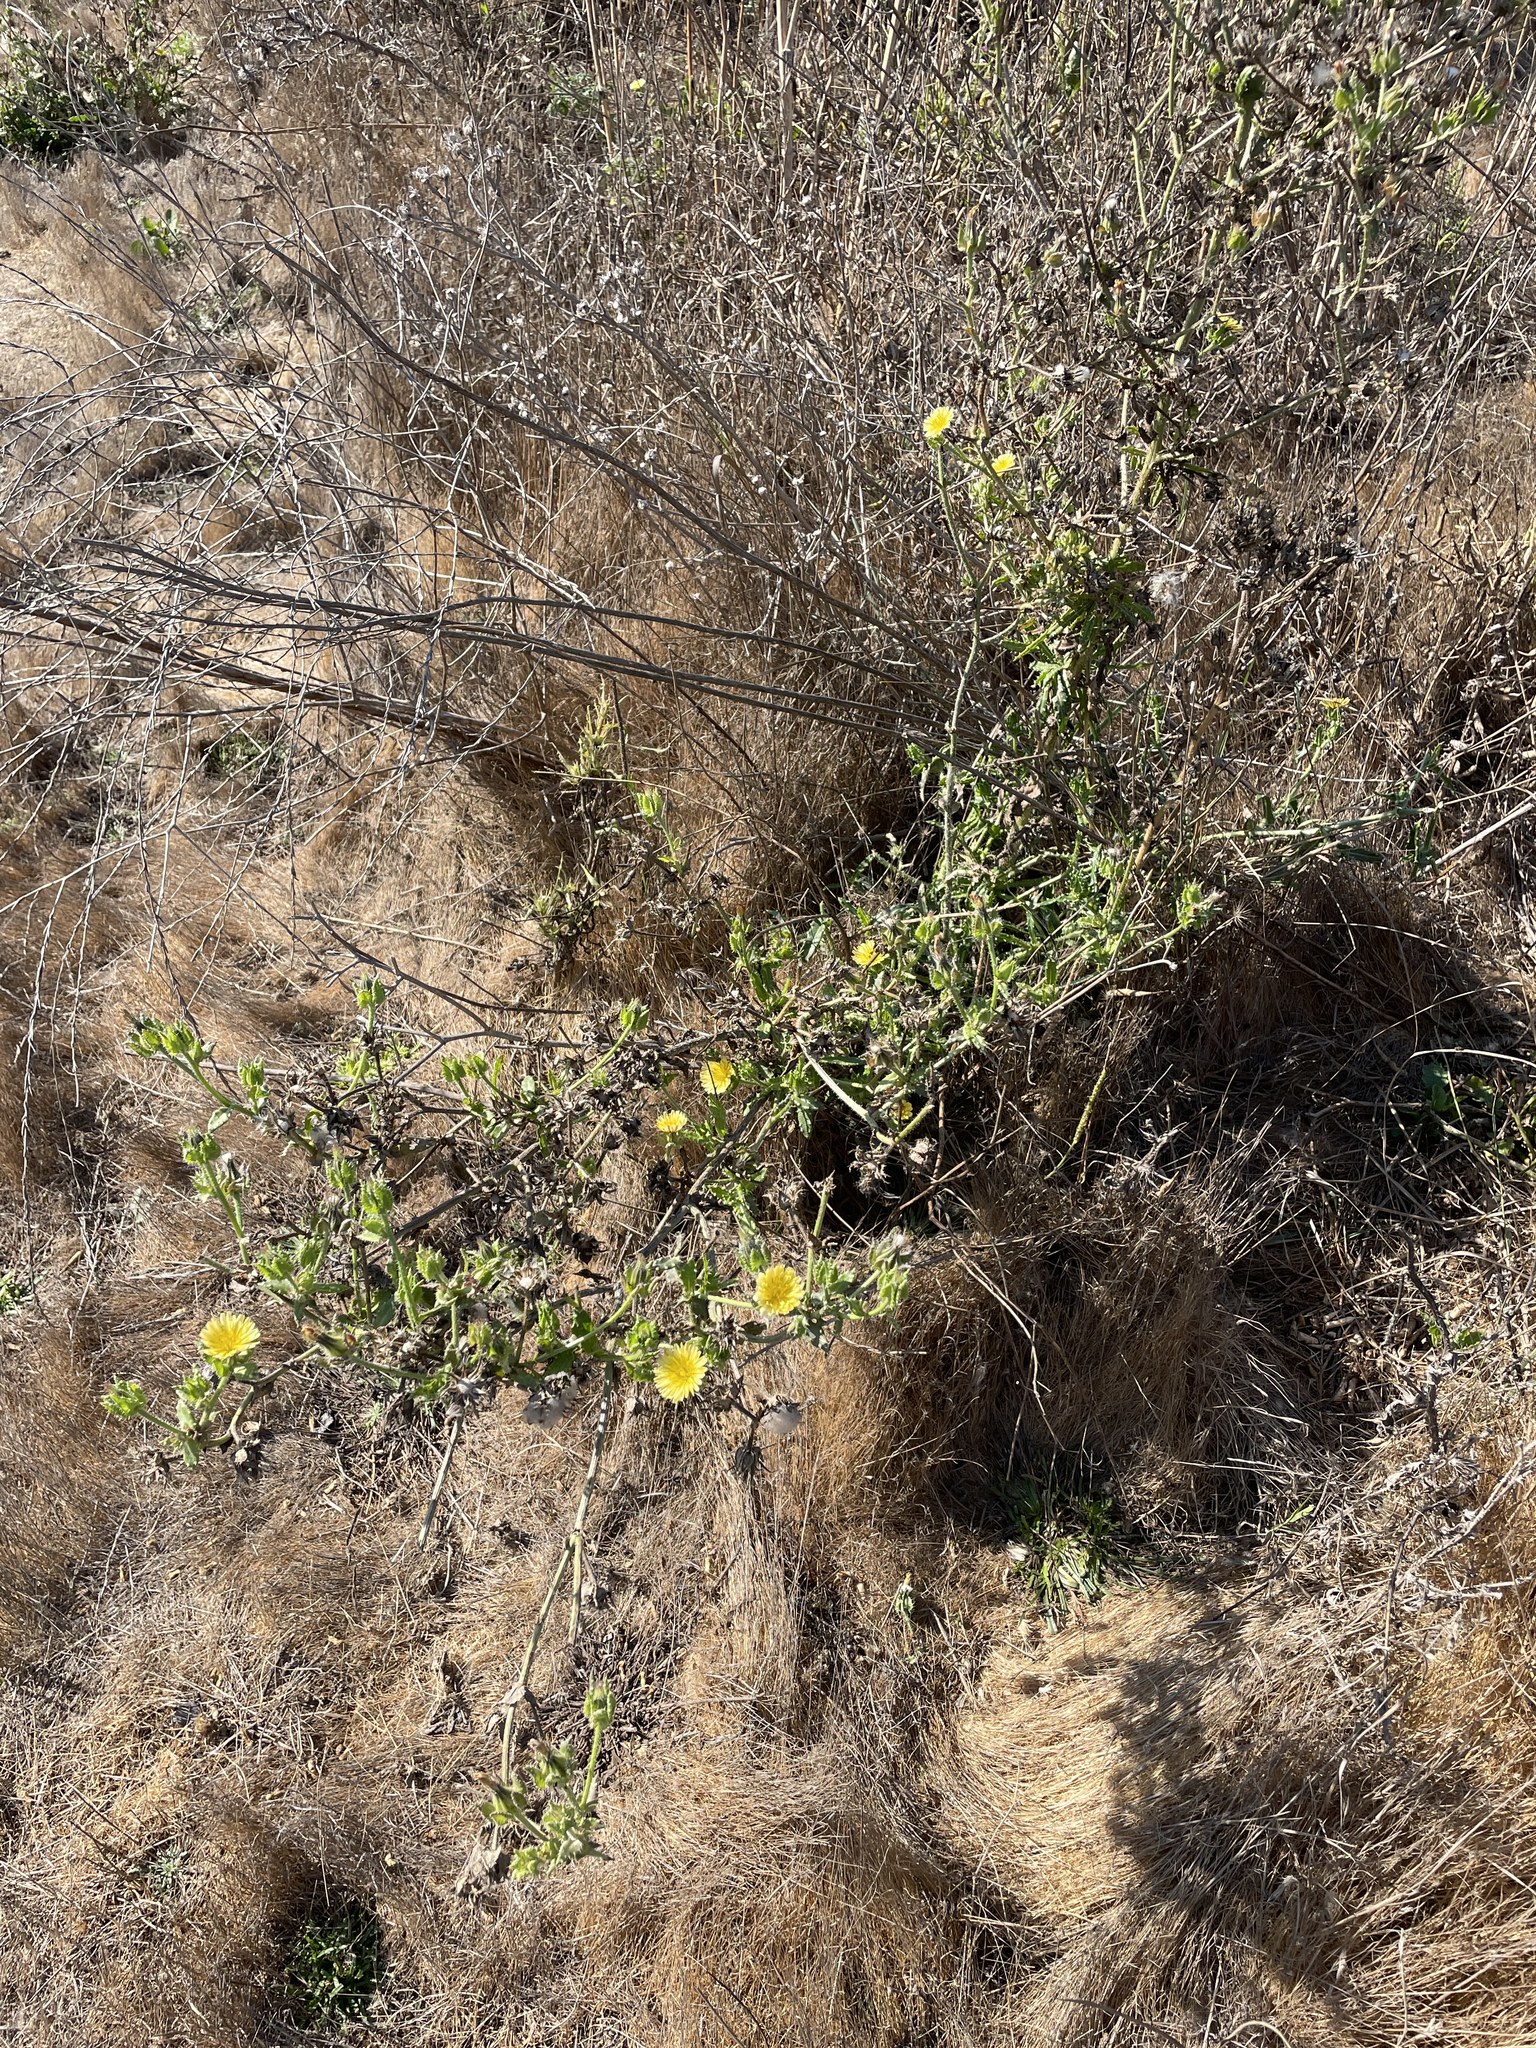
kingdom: Plantae
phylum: Tracheophyta
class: Magnoliopsida
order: Asterales
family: Asteraceae
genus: Helminthotheca
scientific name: Helminthotheca echioides
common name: Ox-tongue
